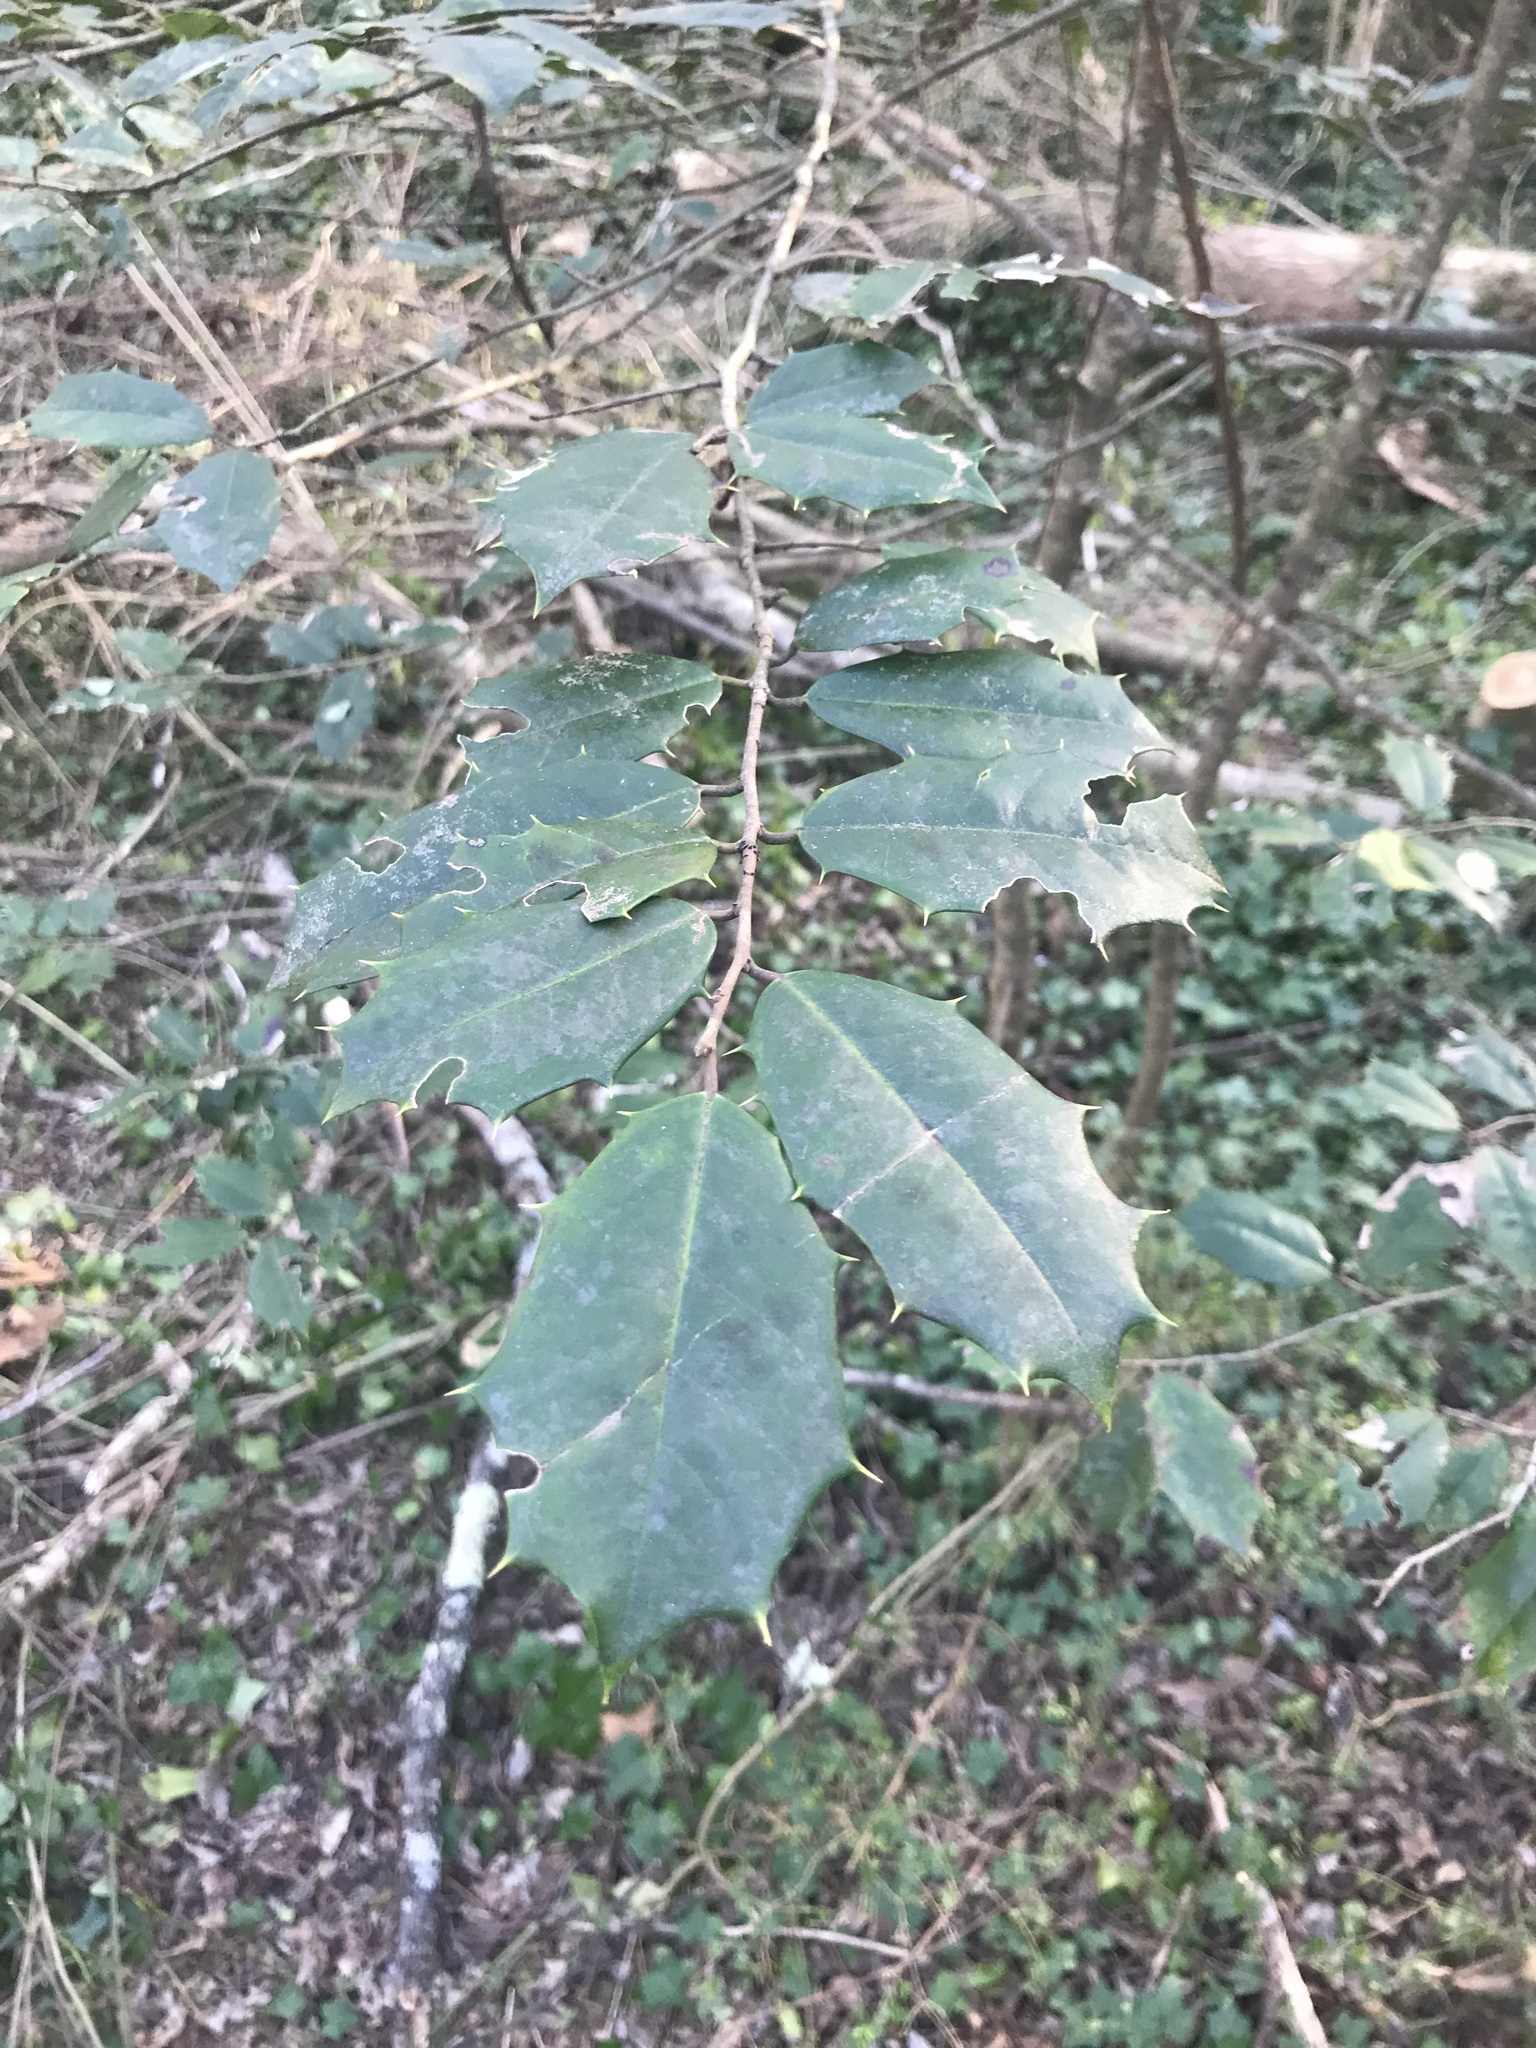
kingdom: Plantae
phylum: Tracheophyta
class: Magnoliopsida
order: Aquifoliales
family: Aquifoliaceae
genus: Ilex
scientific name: Ilex opaca
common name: American holly
